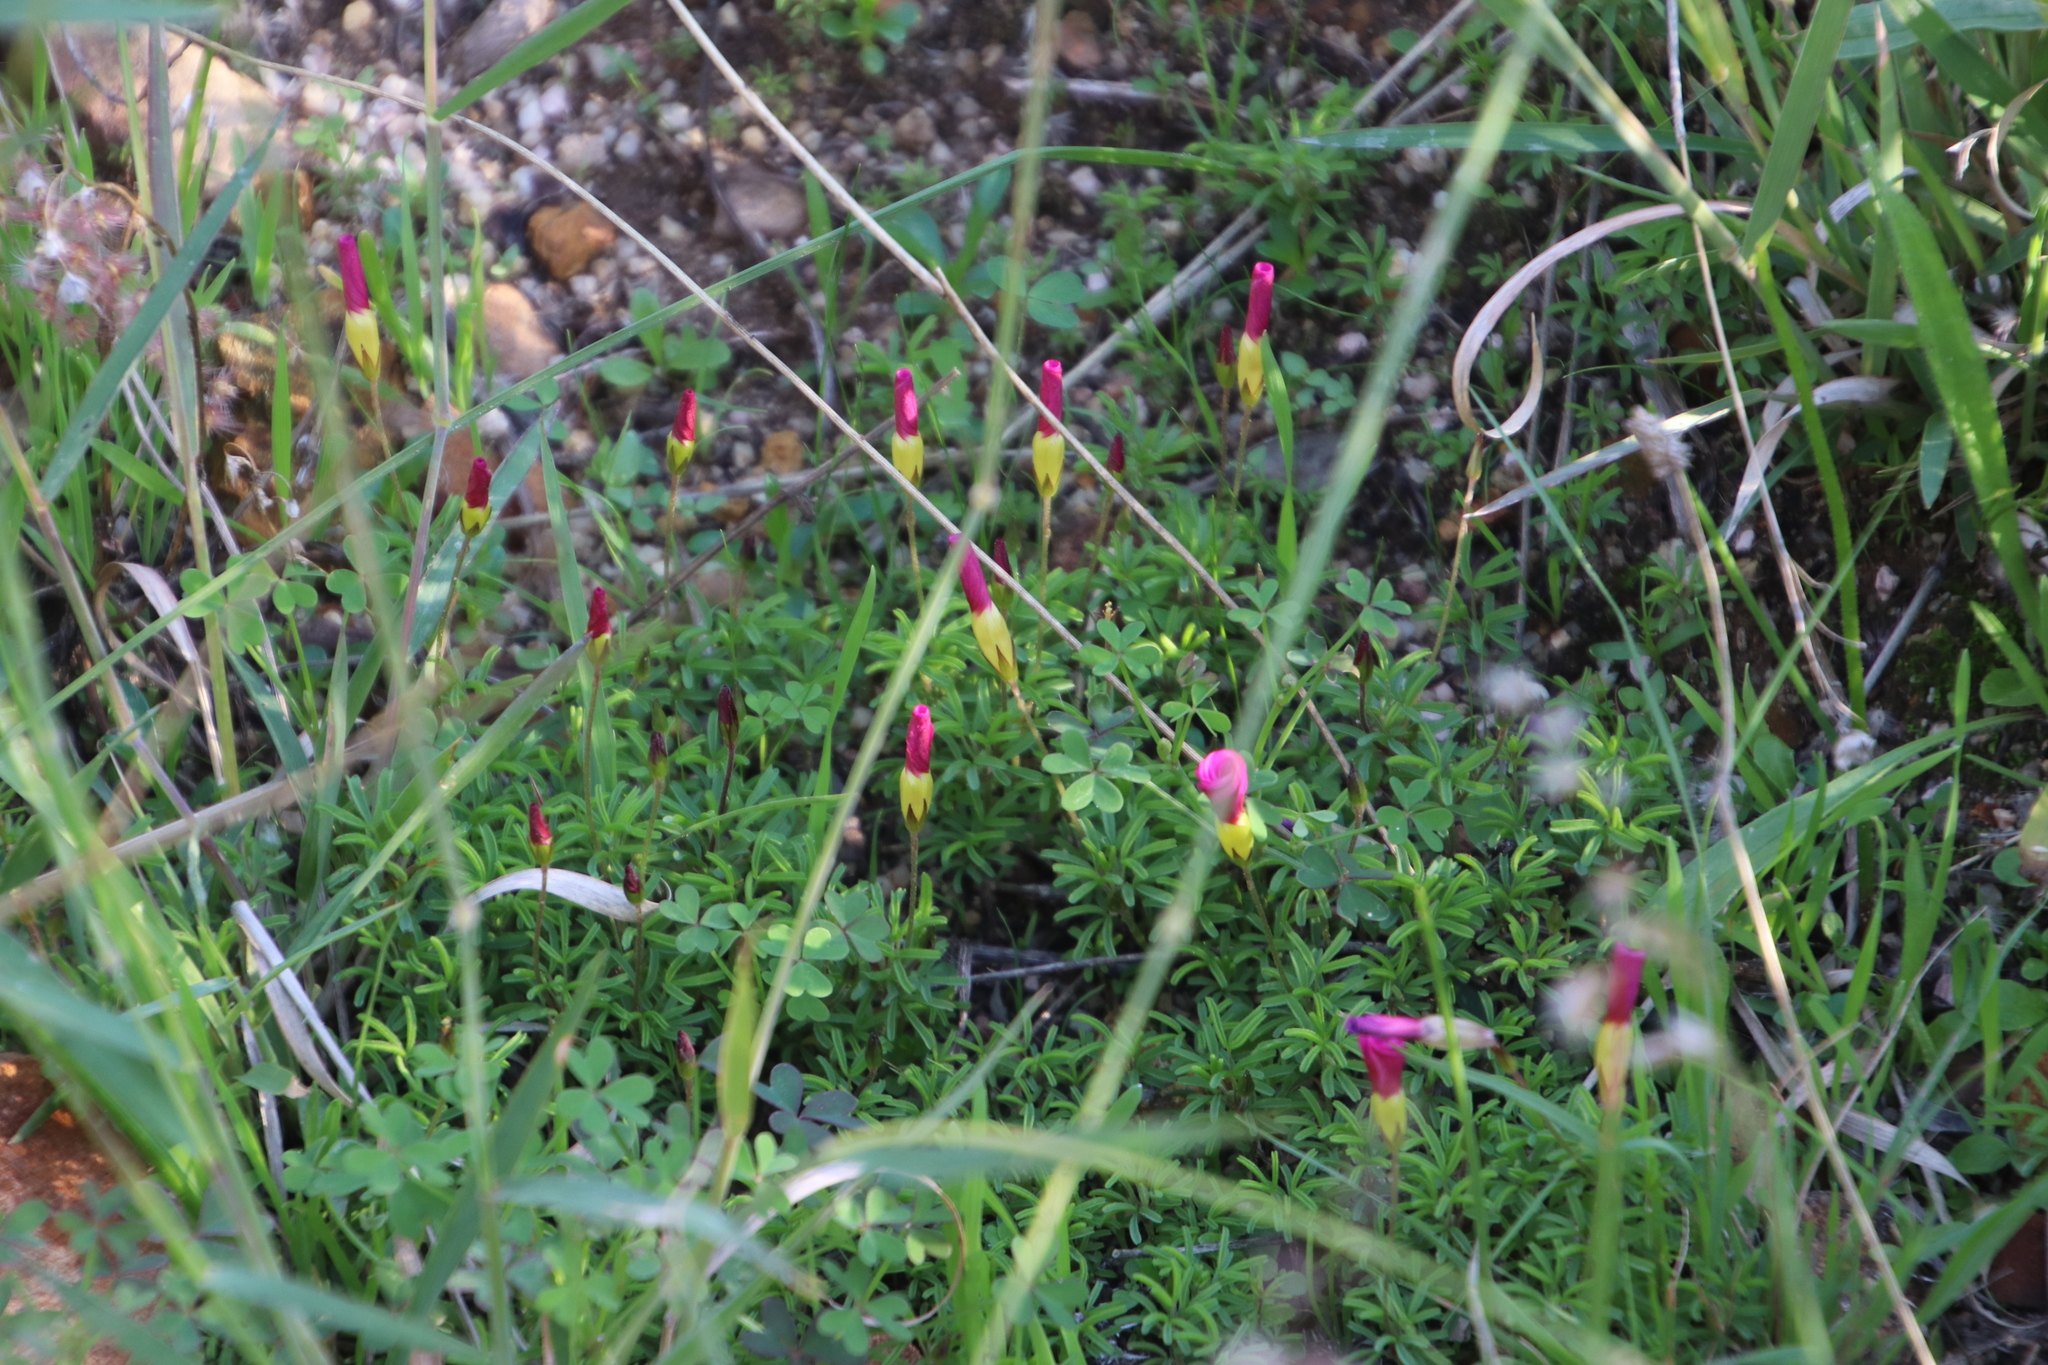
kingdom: Plantae
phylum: Tracheophyta
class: Magnoliopsida
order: Oxalidales
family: Oxalidaceae
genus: Oxalis
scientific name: Oxalis glabra
